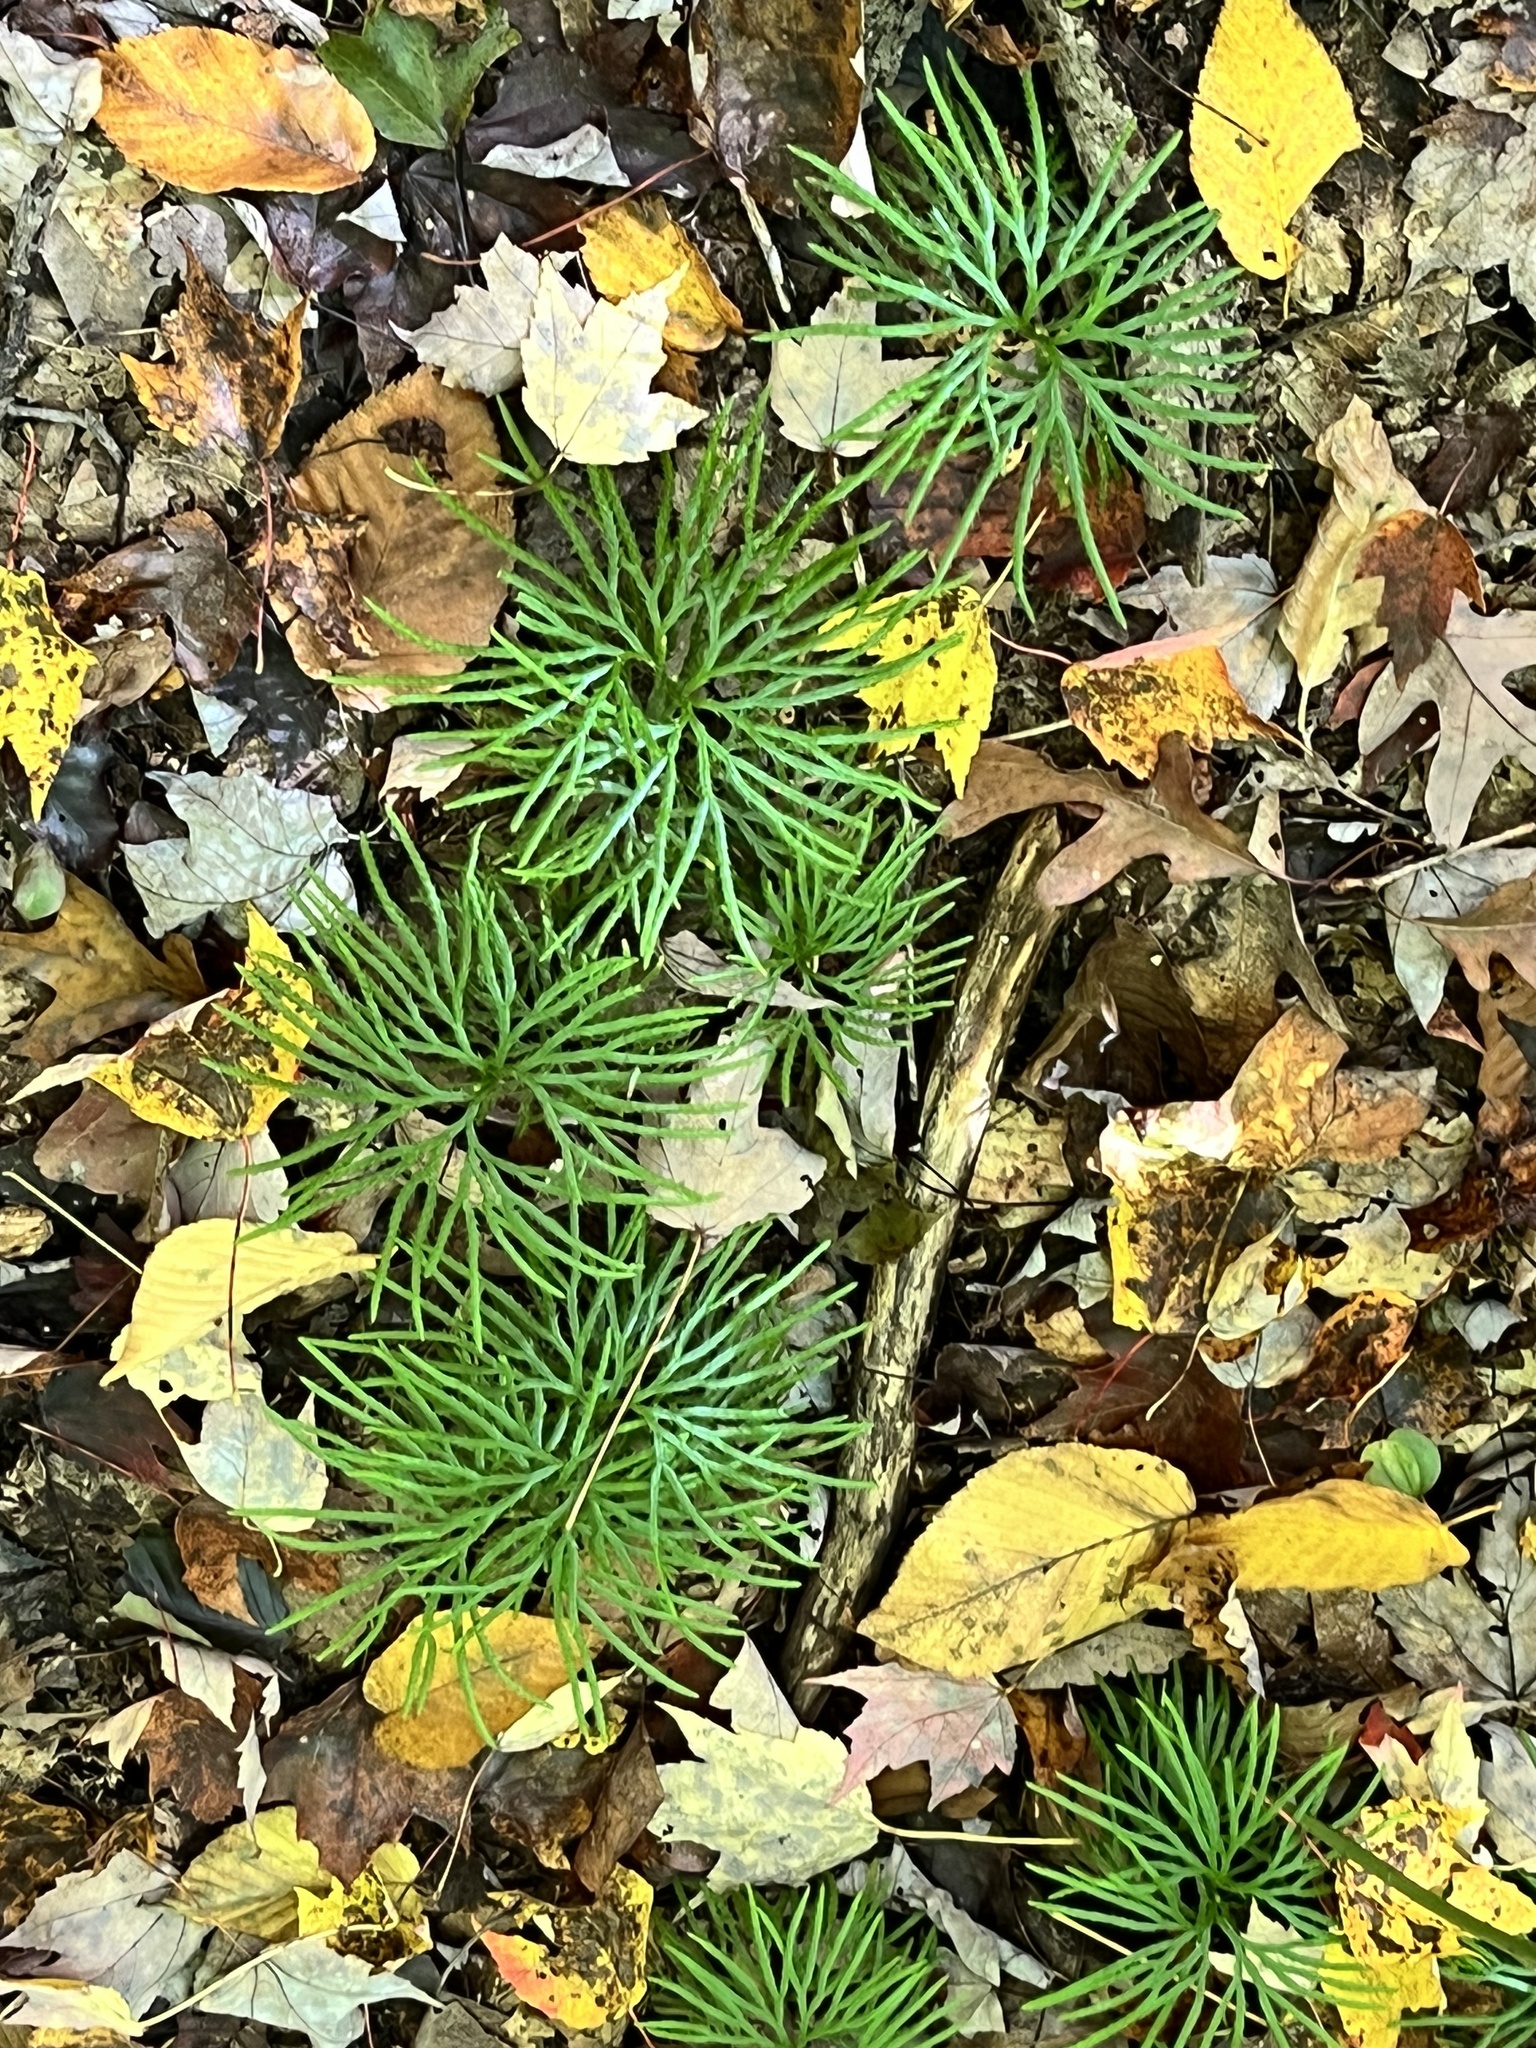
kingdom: Plantae
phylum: Tracheophyta
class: Lycopodiopsida
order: Lycopodiales
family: Lycopodiaceae
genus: Diphasiastrum
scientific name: Diphasiastrum digitatum
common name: Southern running-pine
